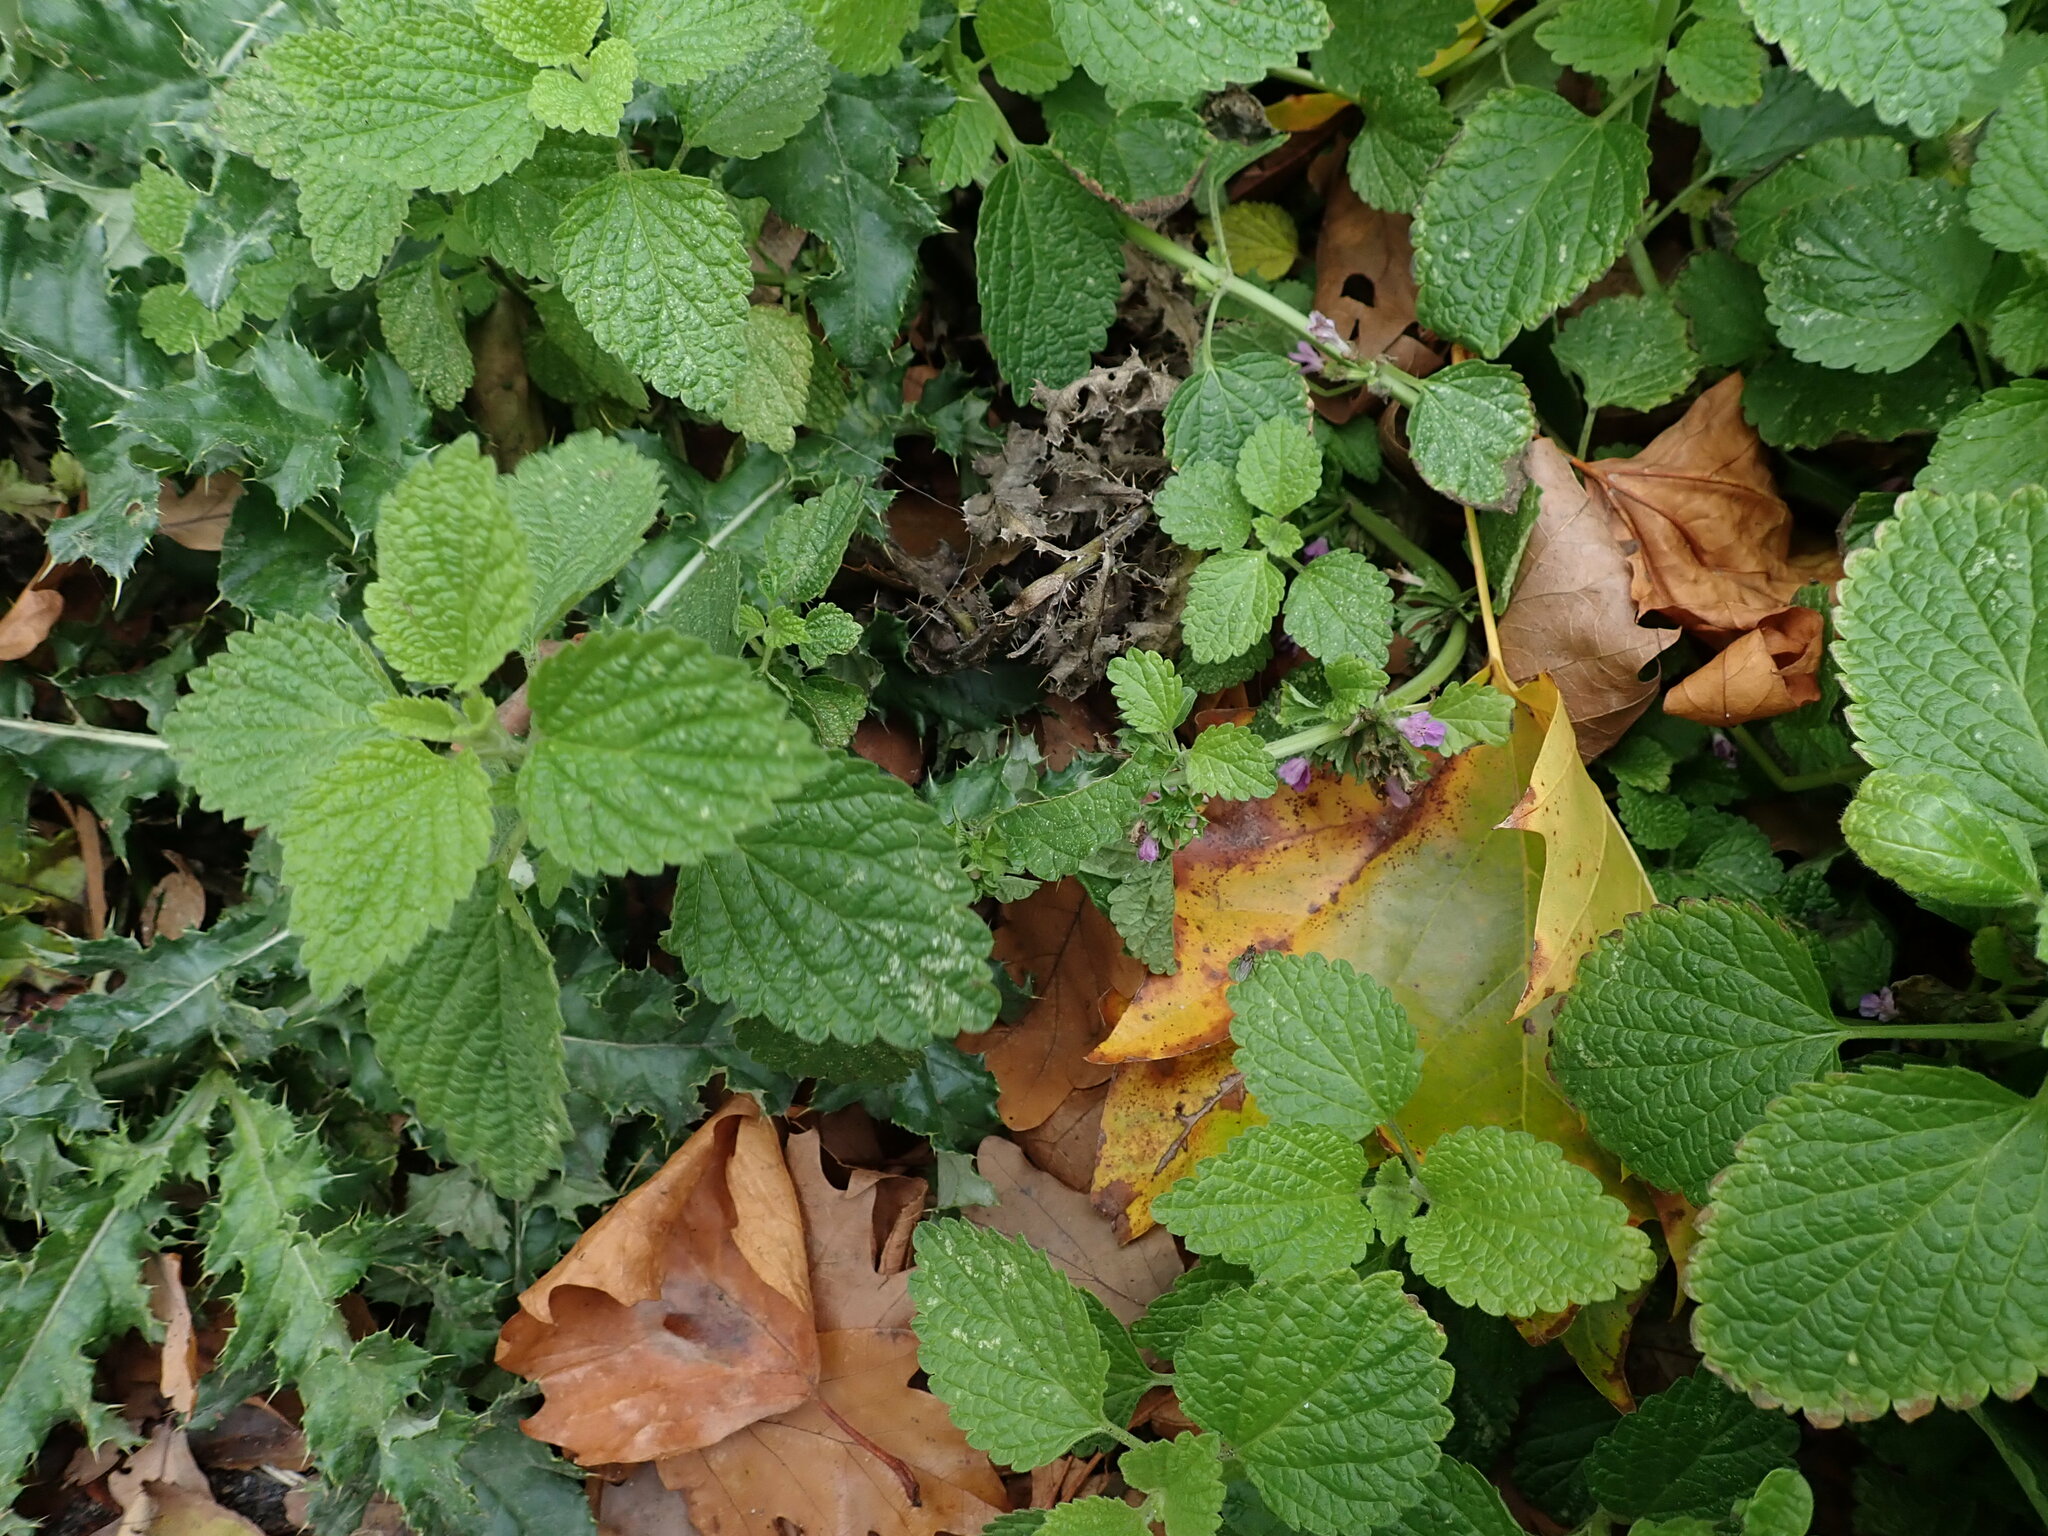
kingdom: Plantae
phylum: Tracheophyta
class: Magnoliopsida
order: Lamiales
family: Lamiaceae
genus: Ballota
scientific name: Ballota nigra
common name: Black horehound
